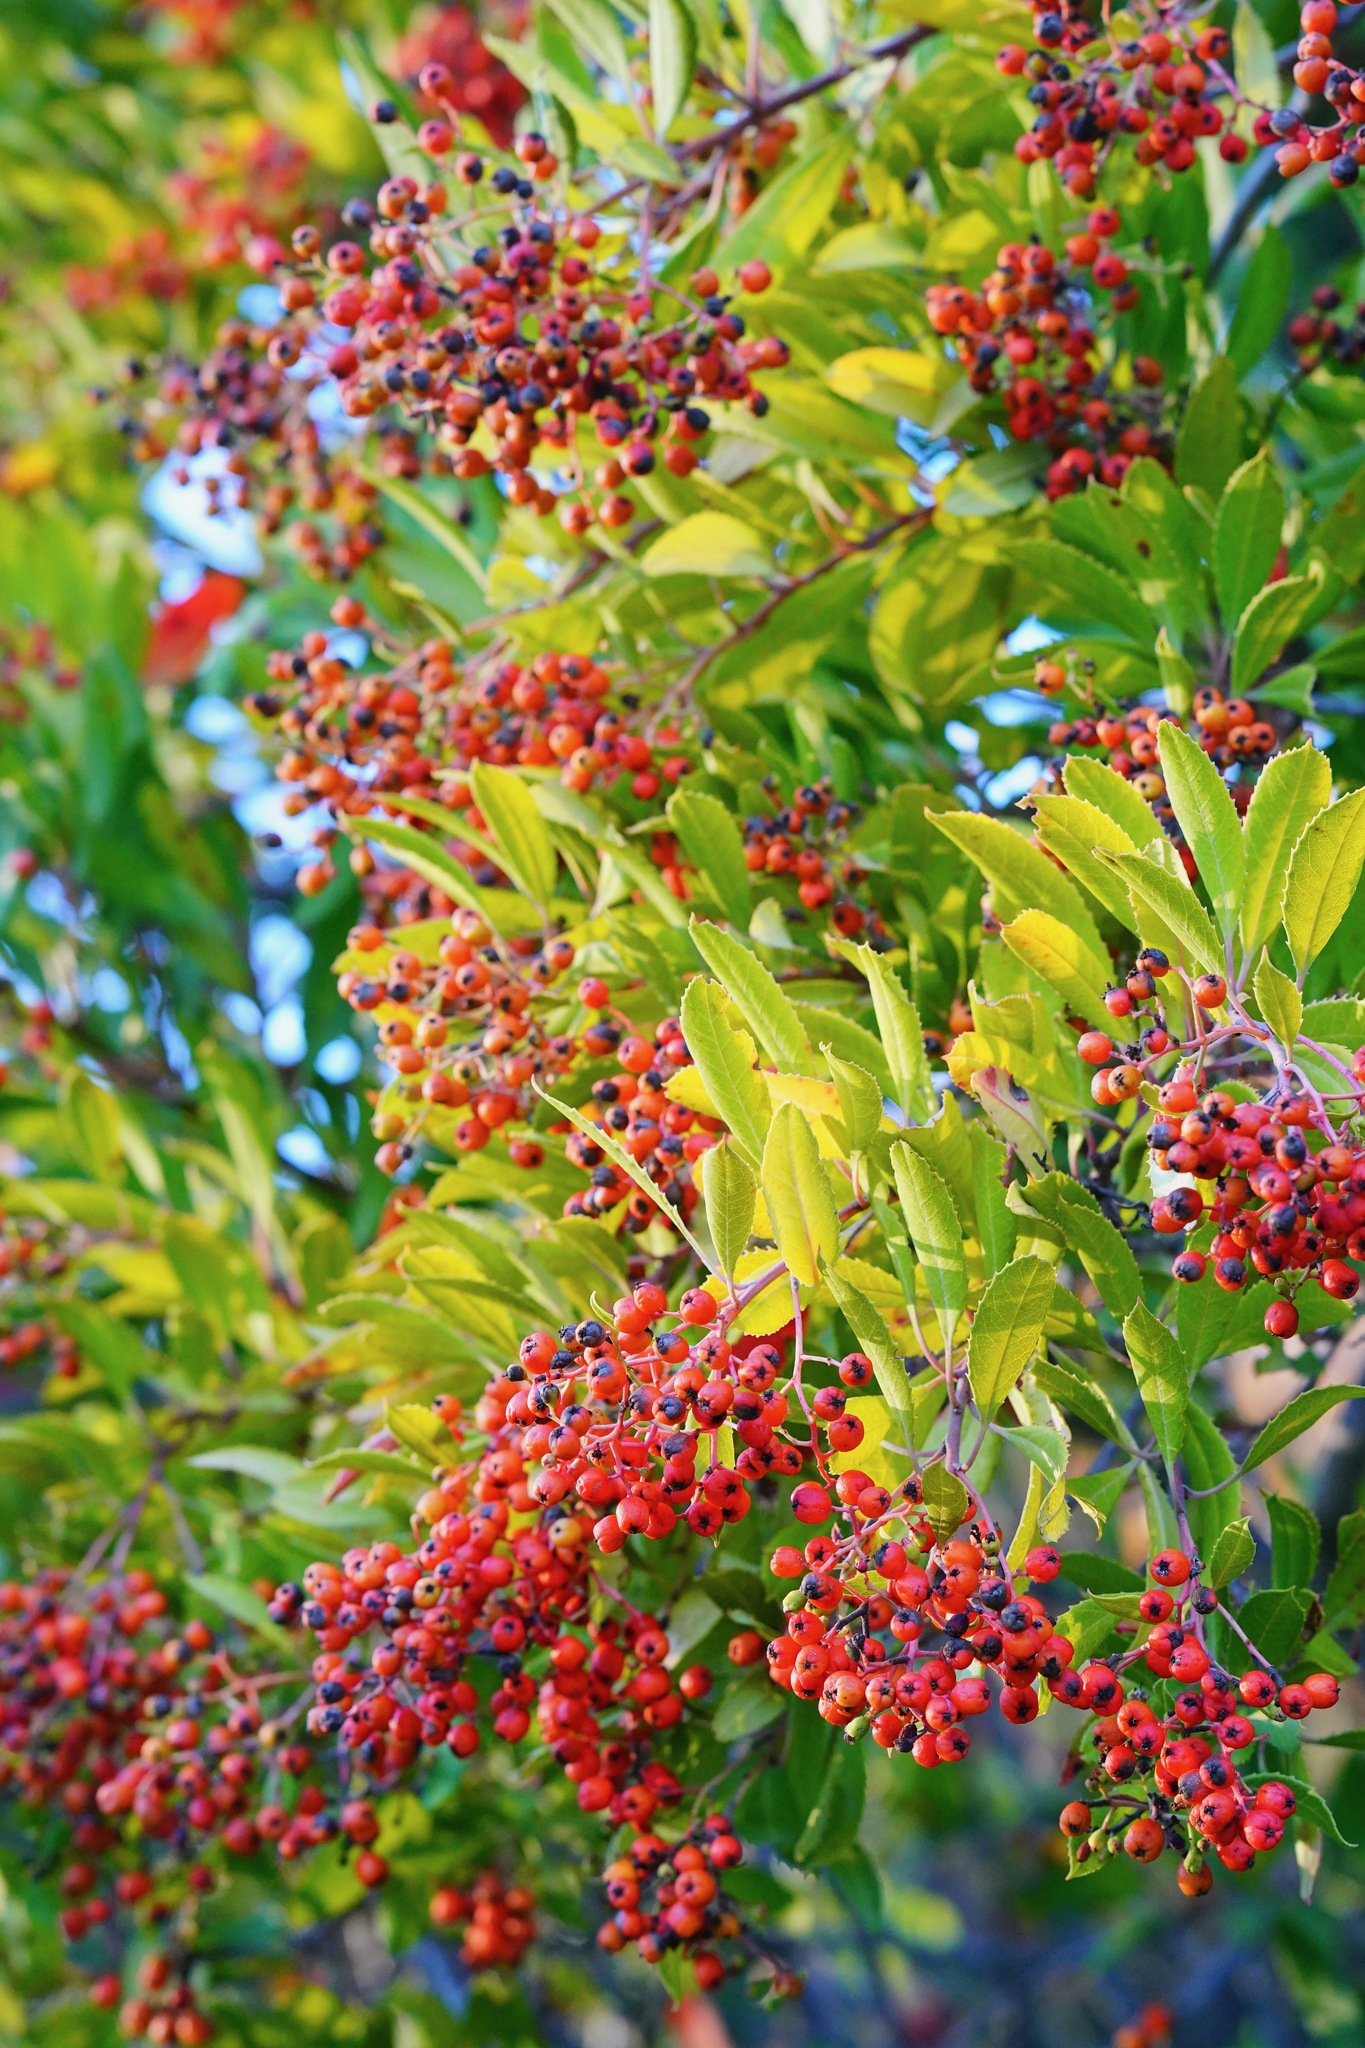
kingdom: Plantae
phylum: Tracheophyta
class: Magnoliopsida
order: Rosales
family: Rosaceae
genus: Heteromeles
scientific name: Heteromeles arbutifolia
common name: California-holly
